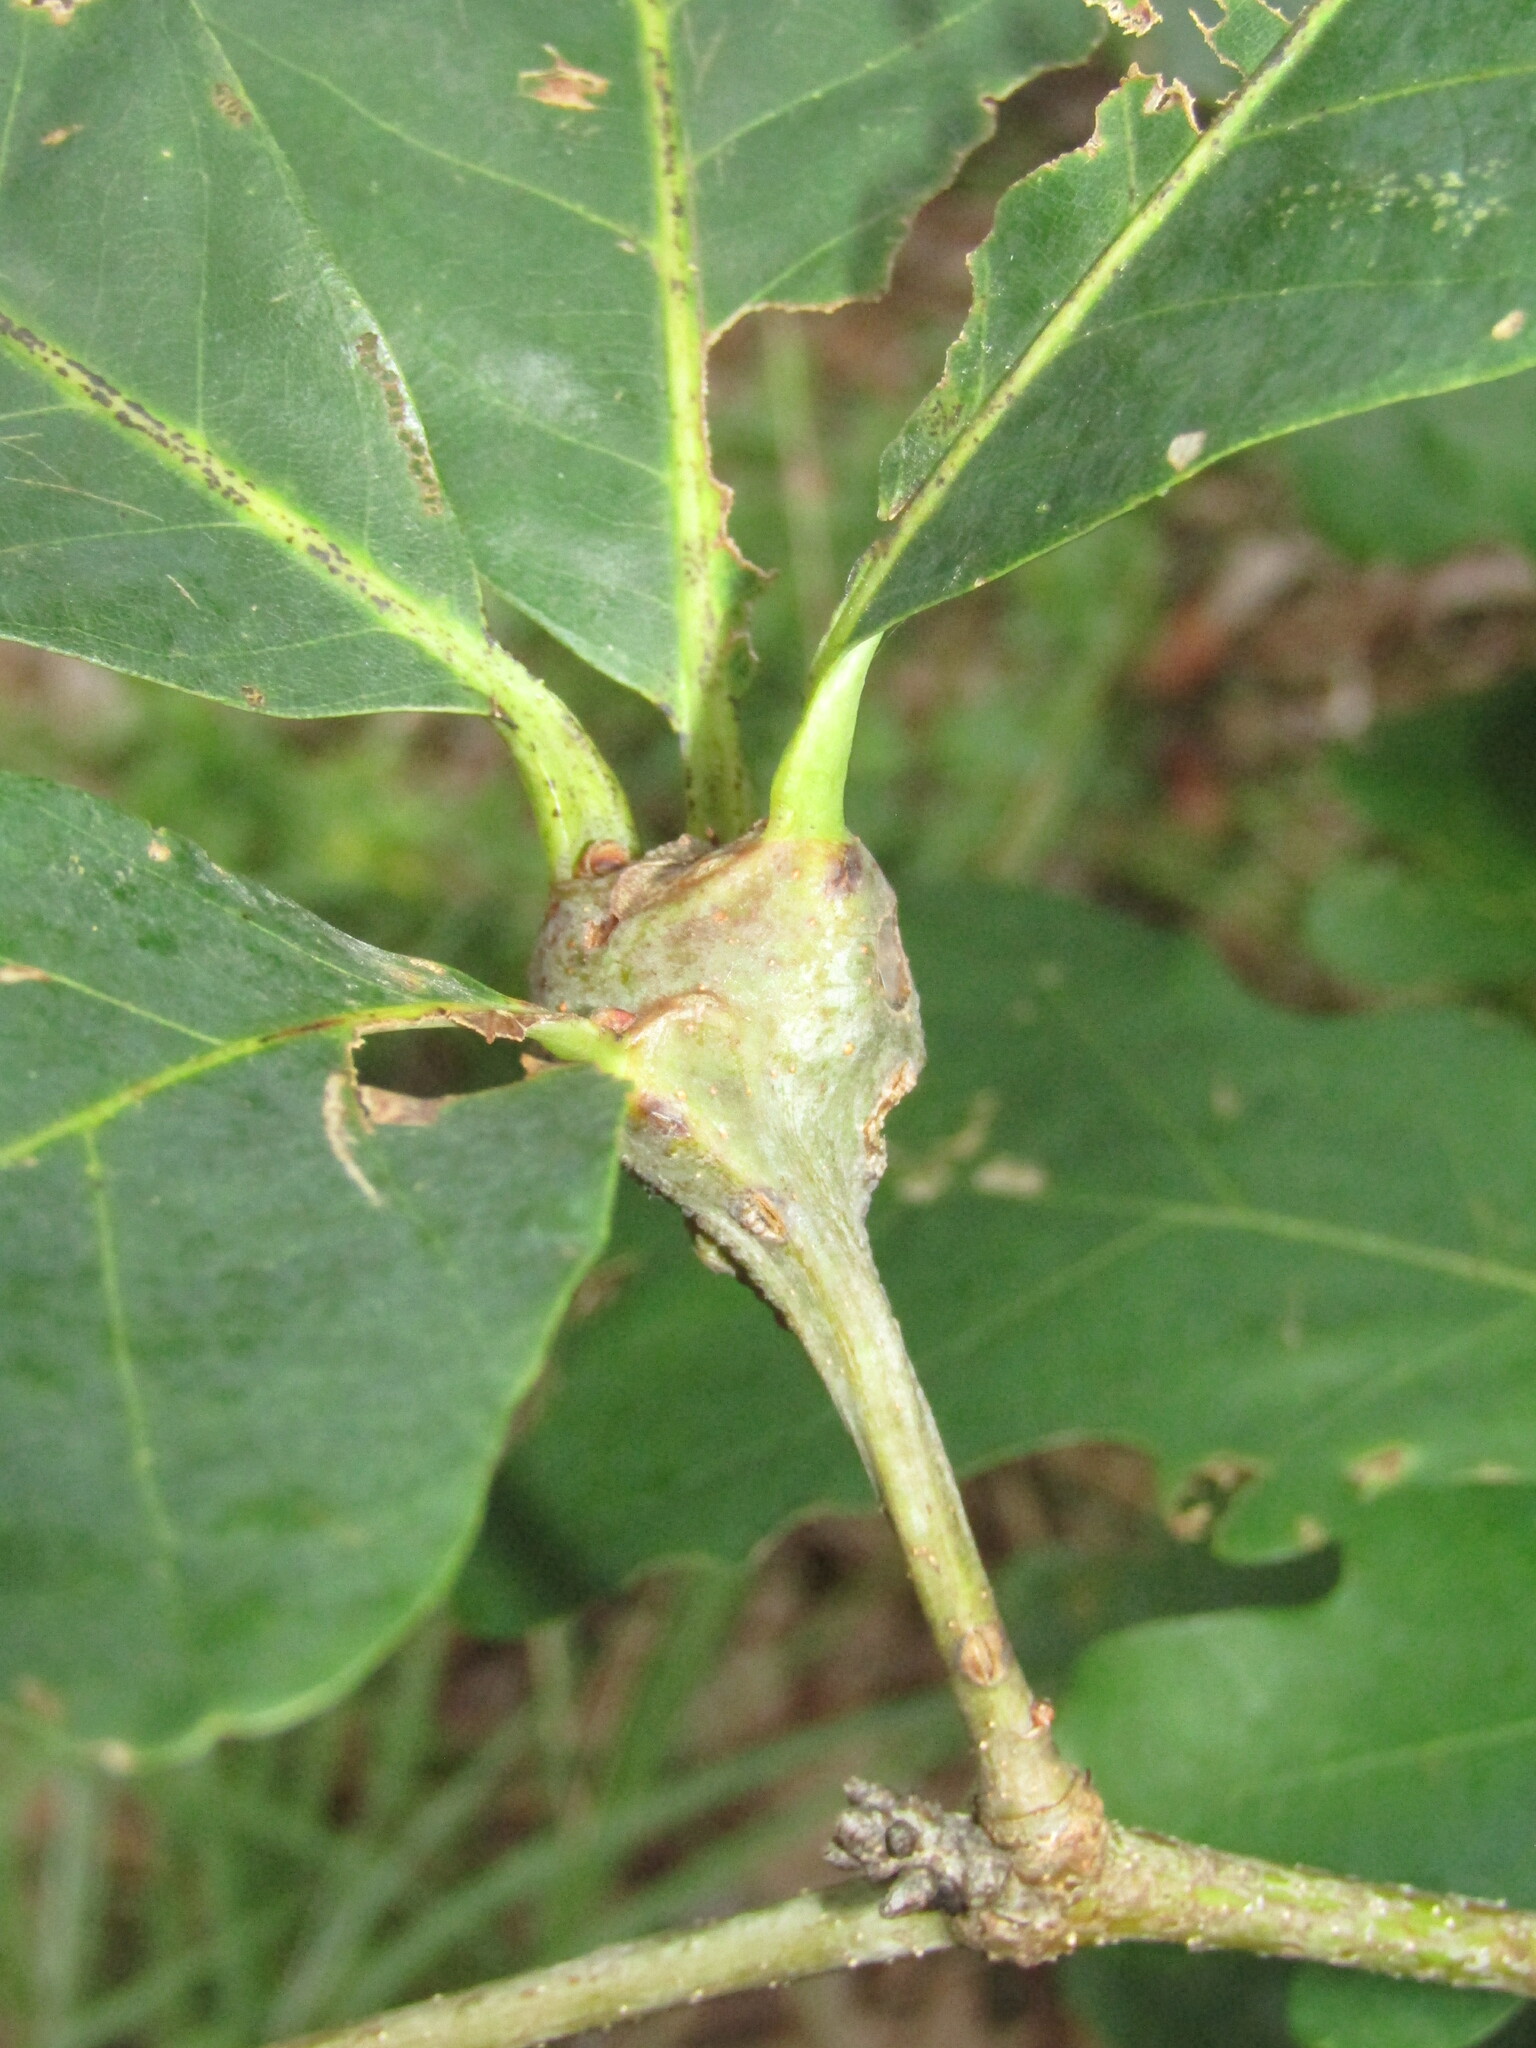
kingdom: Animalia
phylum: Arthropoda
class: Insecta
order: Hymenoptera
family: Cynipidae
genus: Callirhytis
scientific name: Callirhytis clavula
